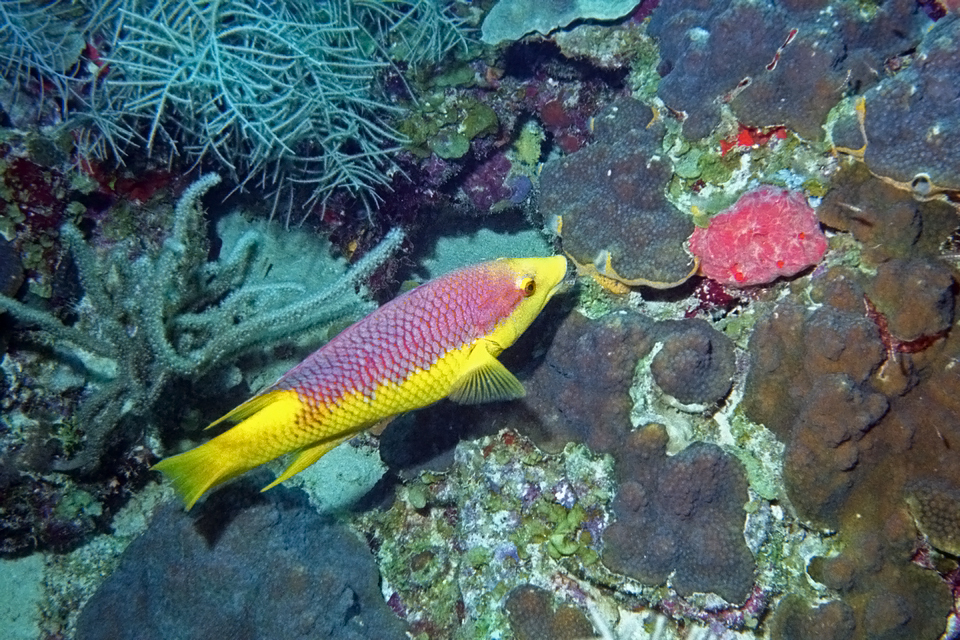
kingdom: Animalia
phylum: Chordata
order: Perciformes
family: Labridae
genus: Bodianus
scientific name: Bodianus rufus
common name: Spanish hogfish
